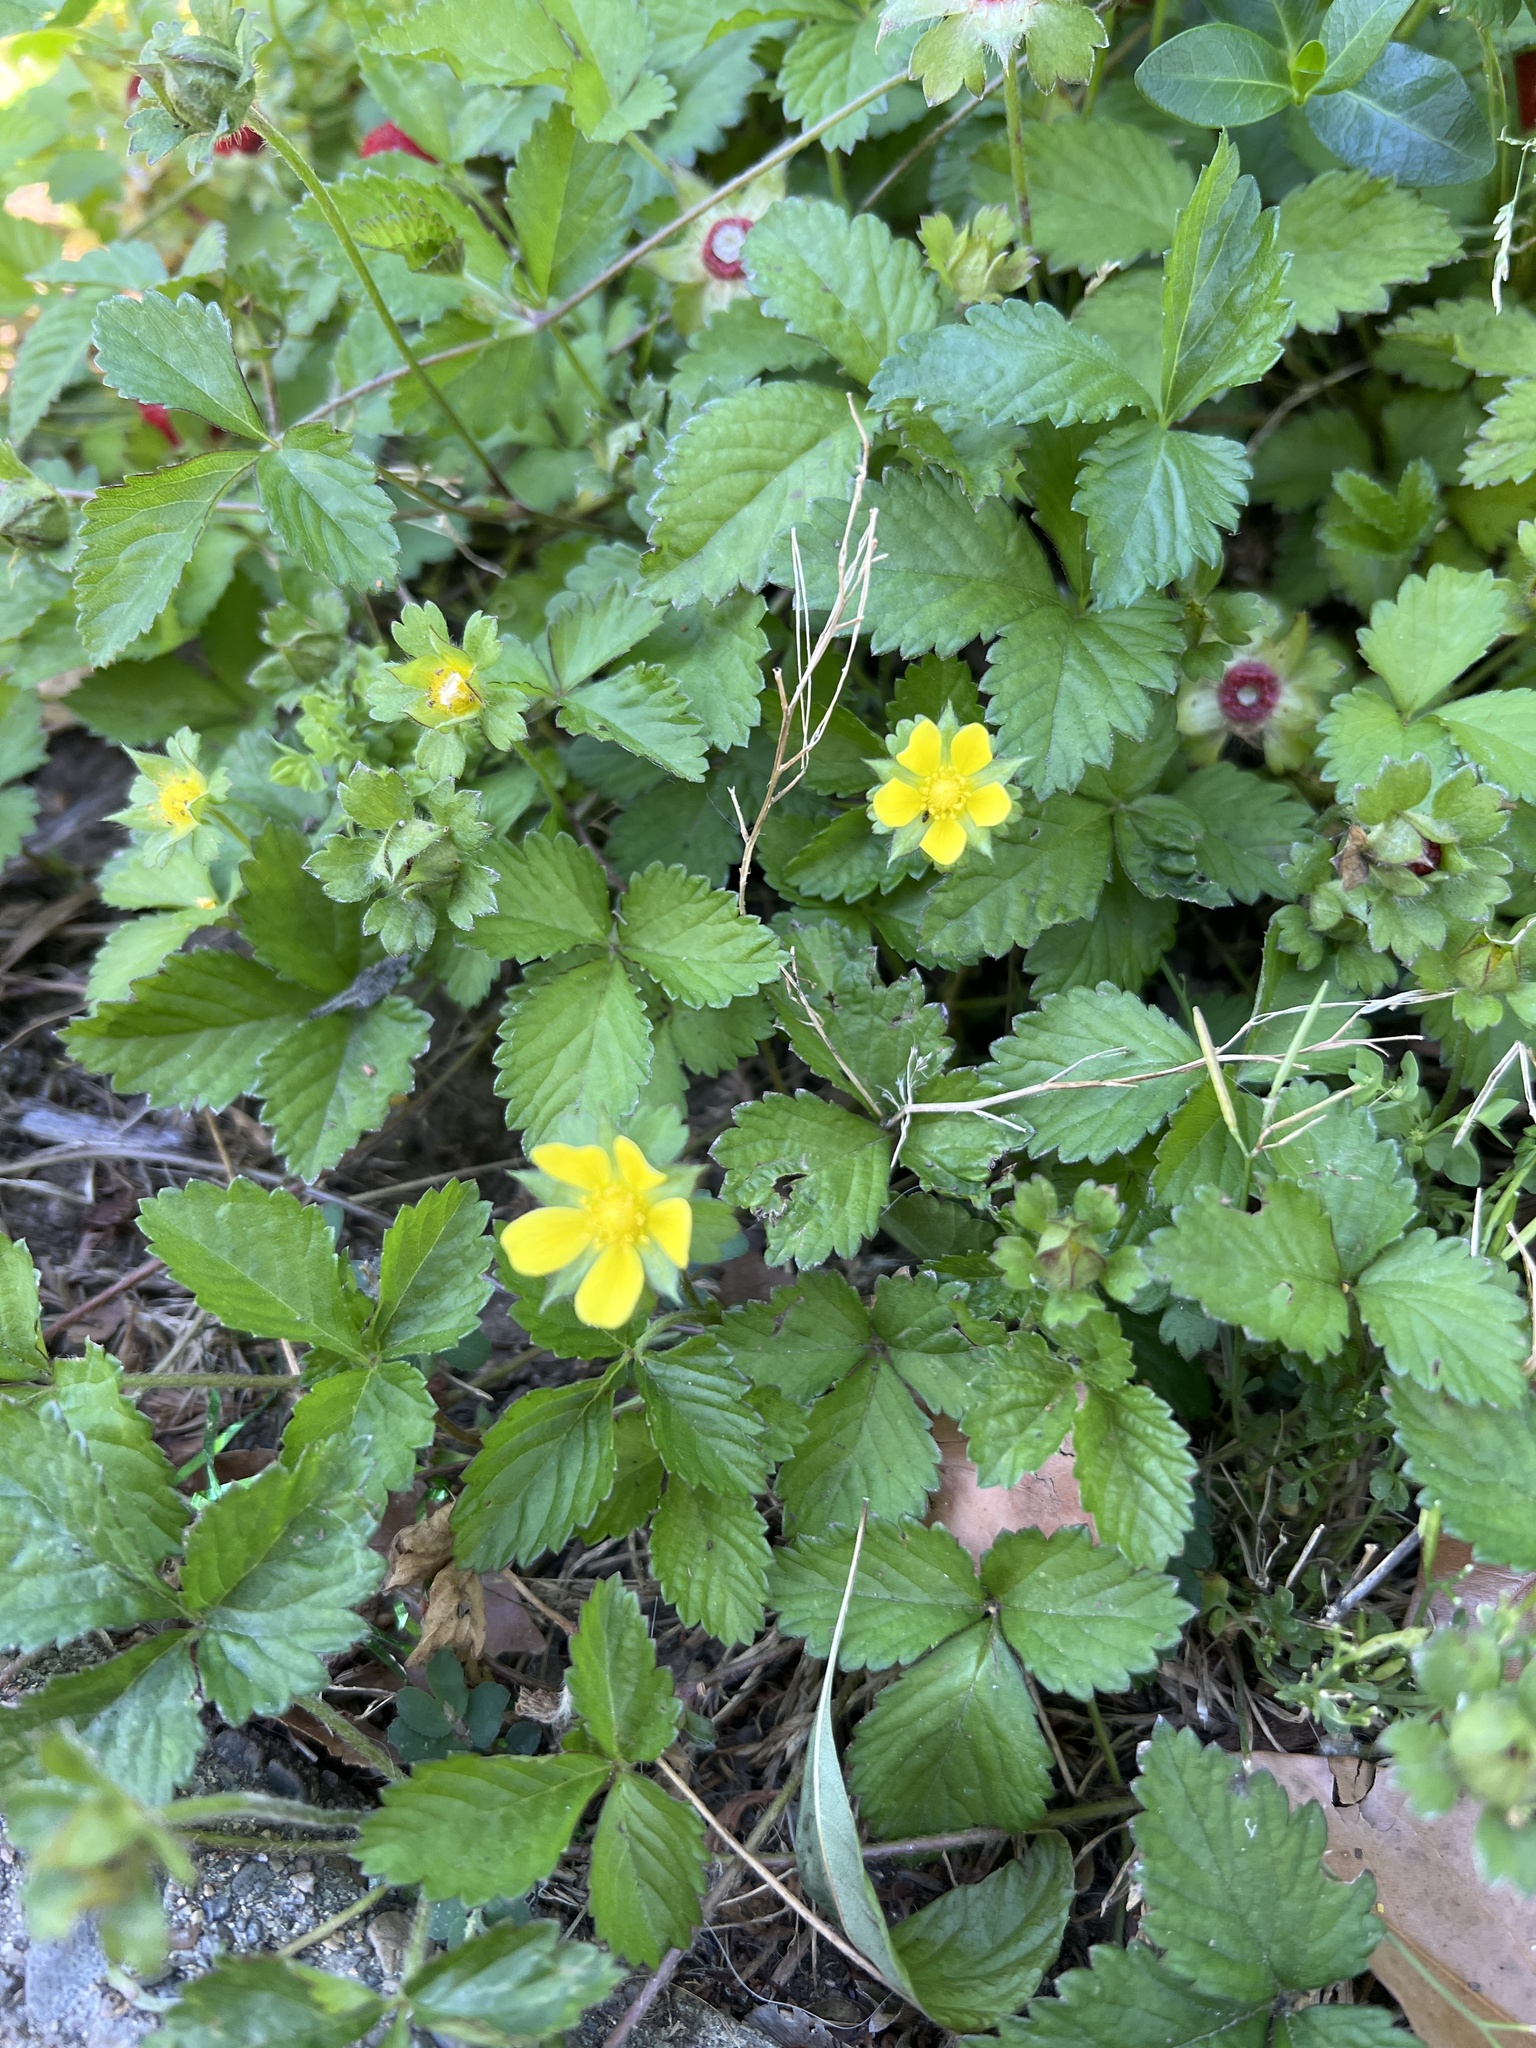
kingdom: Plantae
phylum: Tracheophyta
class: Magnoliopsida
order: Rosales
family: Rosaceae
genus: Potentilla
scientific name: Potentilla indica
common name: Yellow-flowered strawberry
